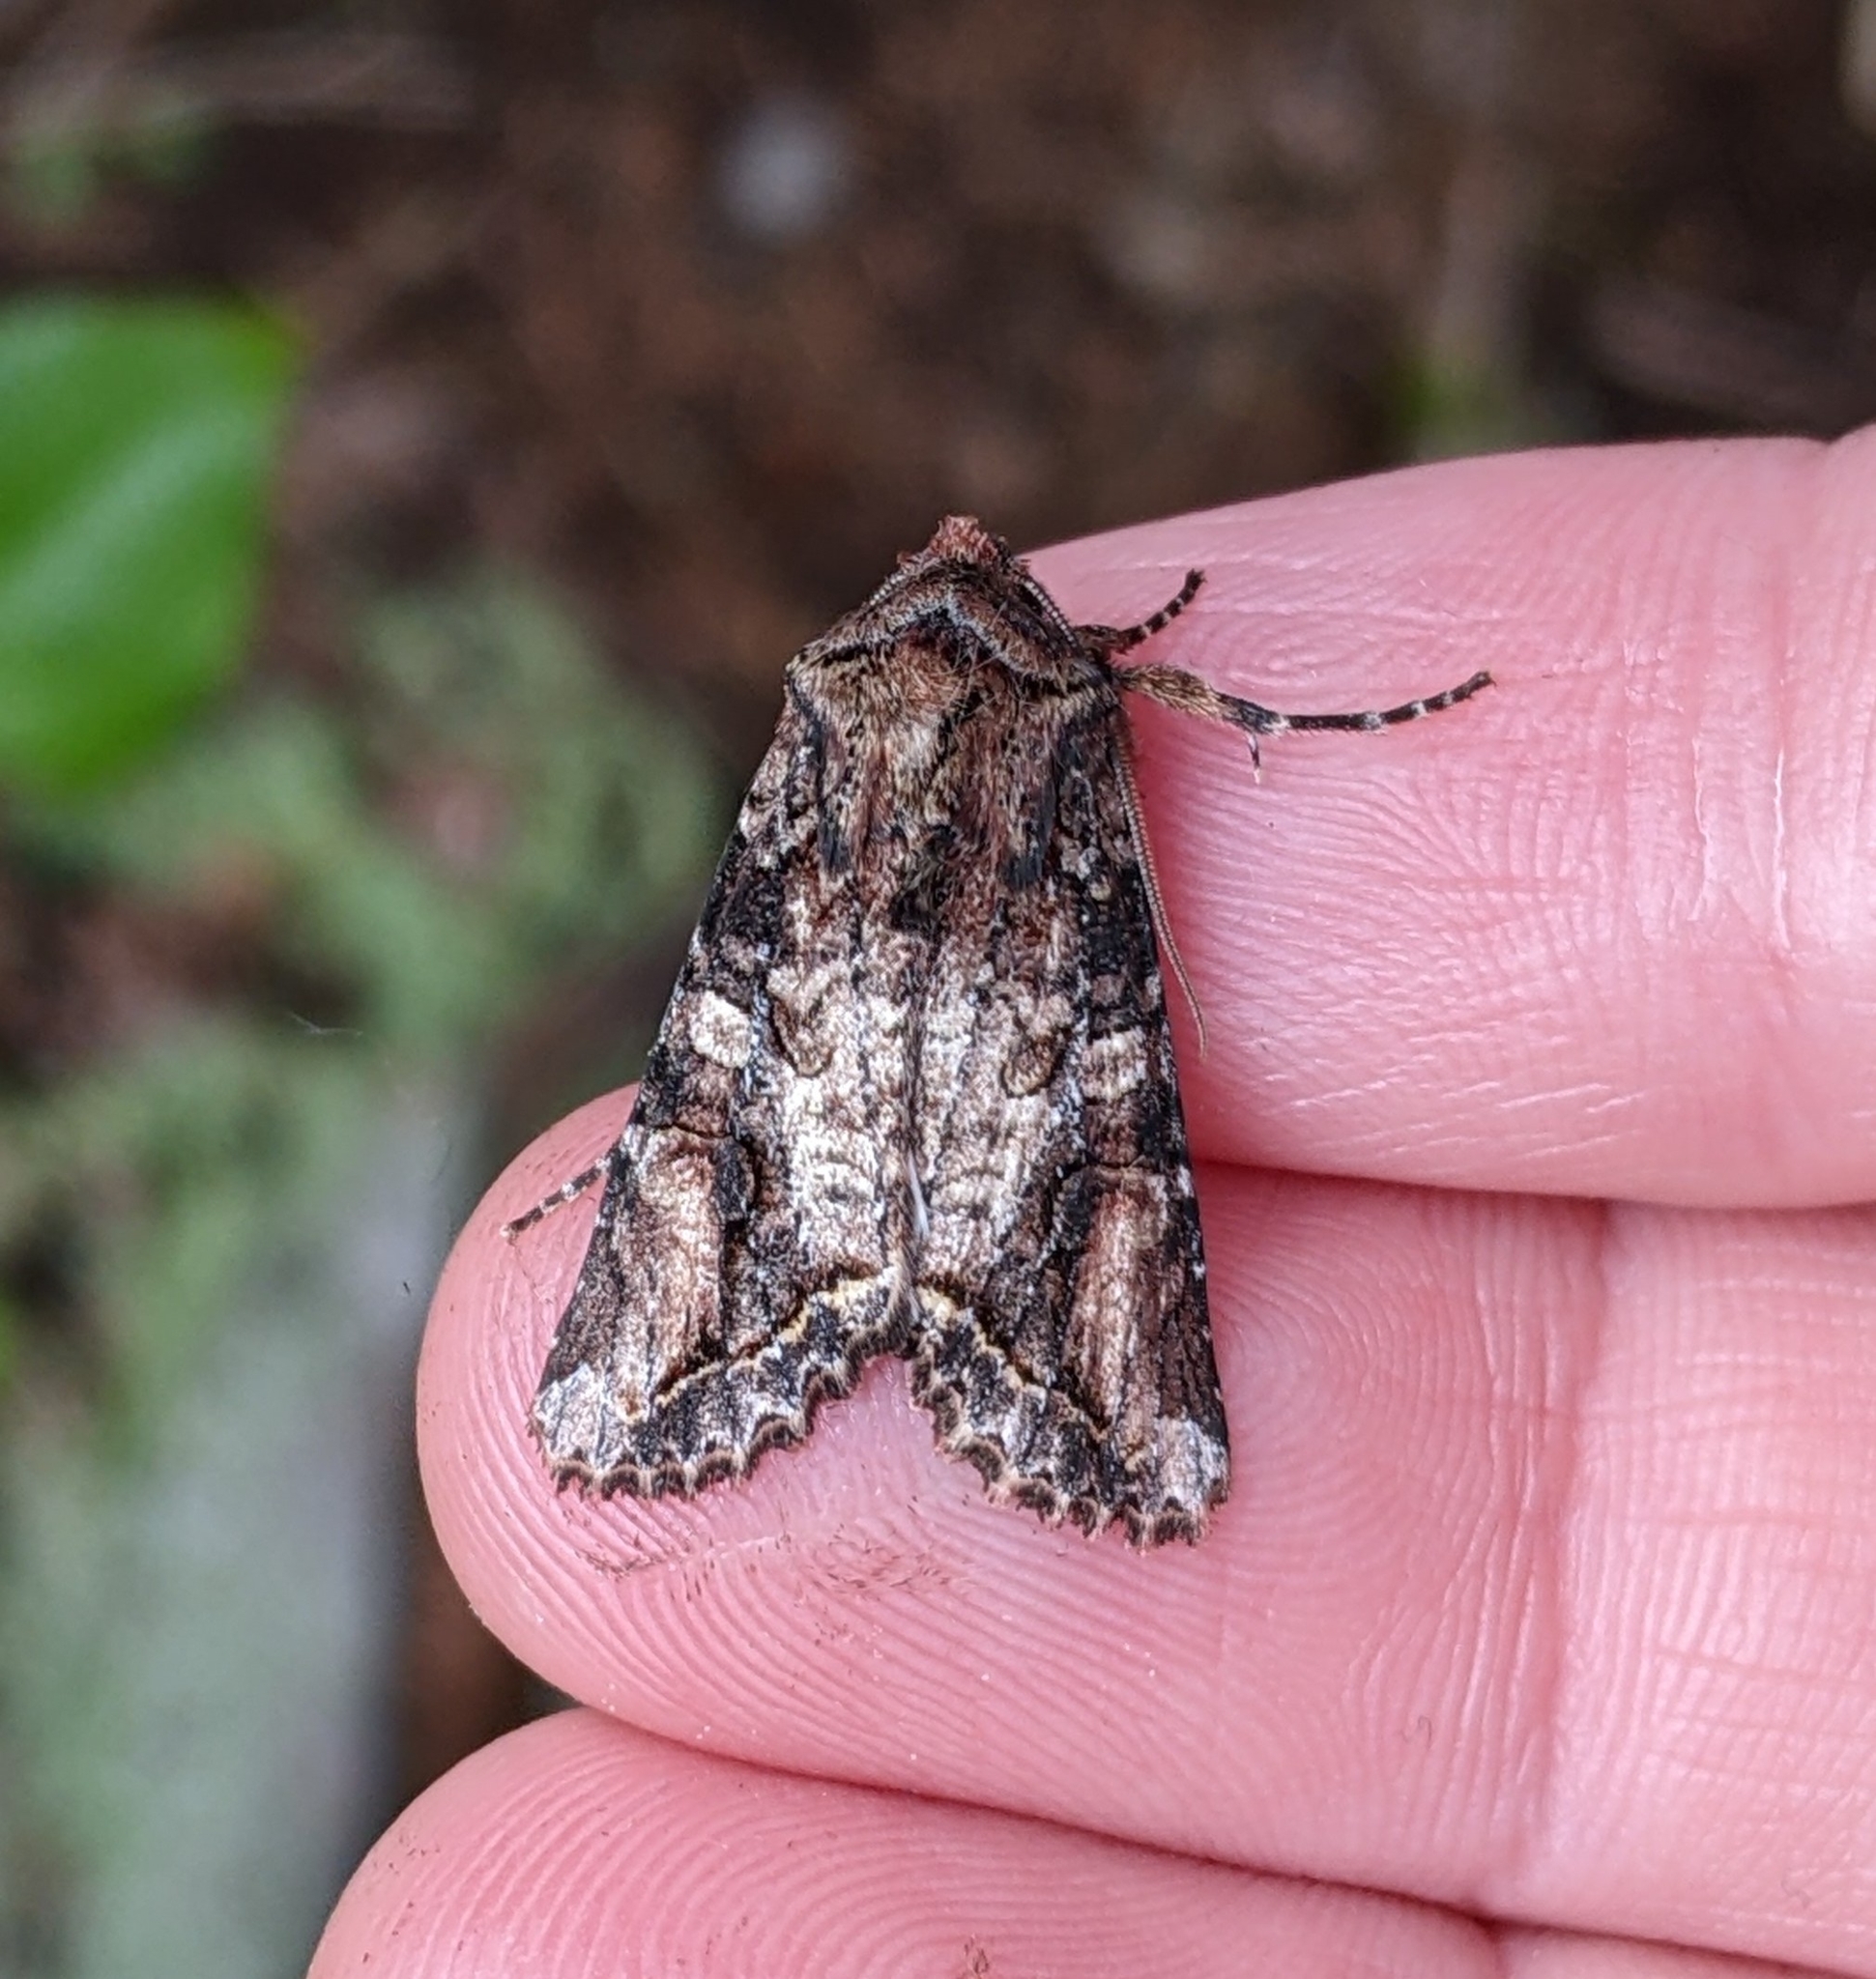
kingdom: Animalia
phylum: Arthropoda
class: Insecta
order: Lepidoptera
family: Noctuidae
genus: Egira
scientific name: Egira perlubens
